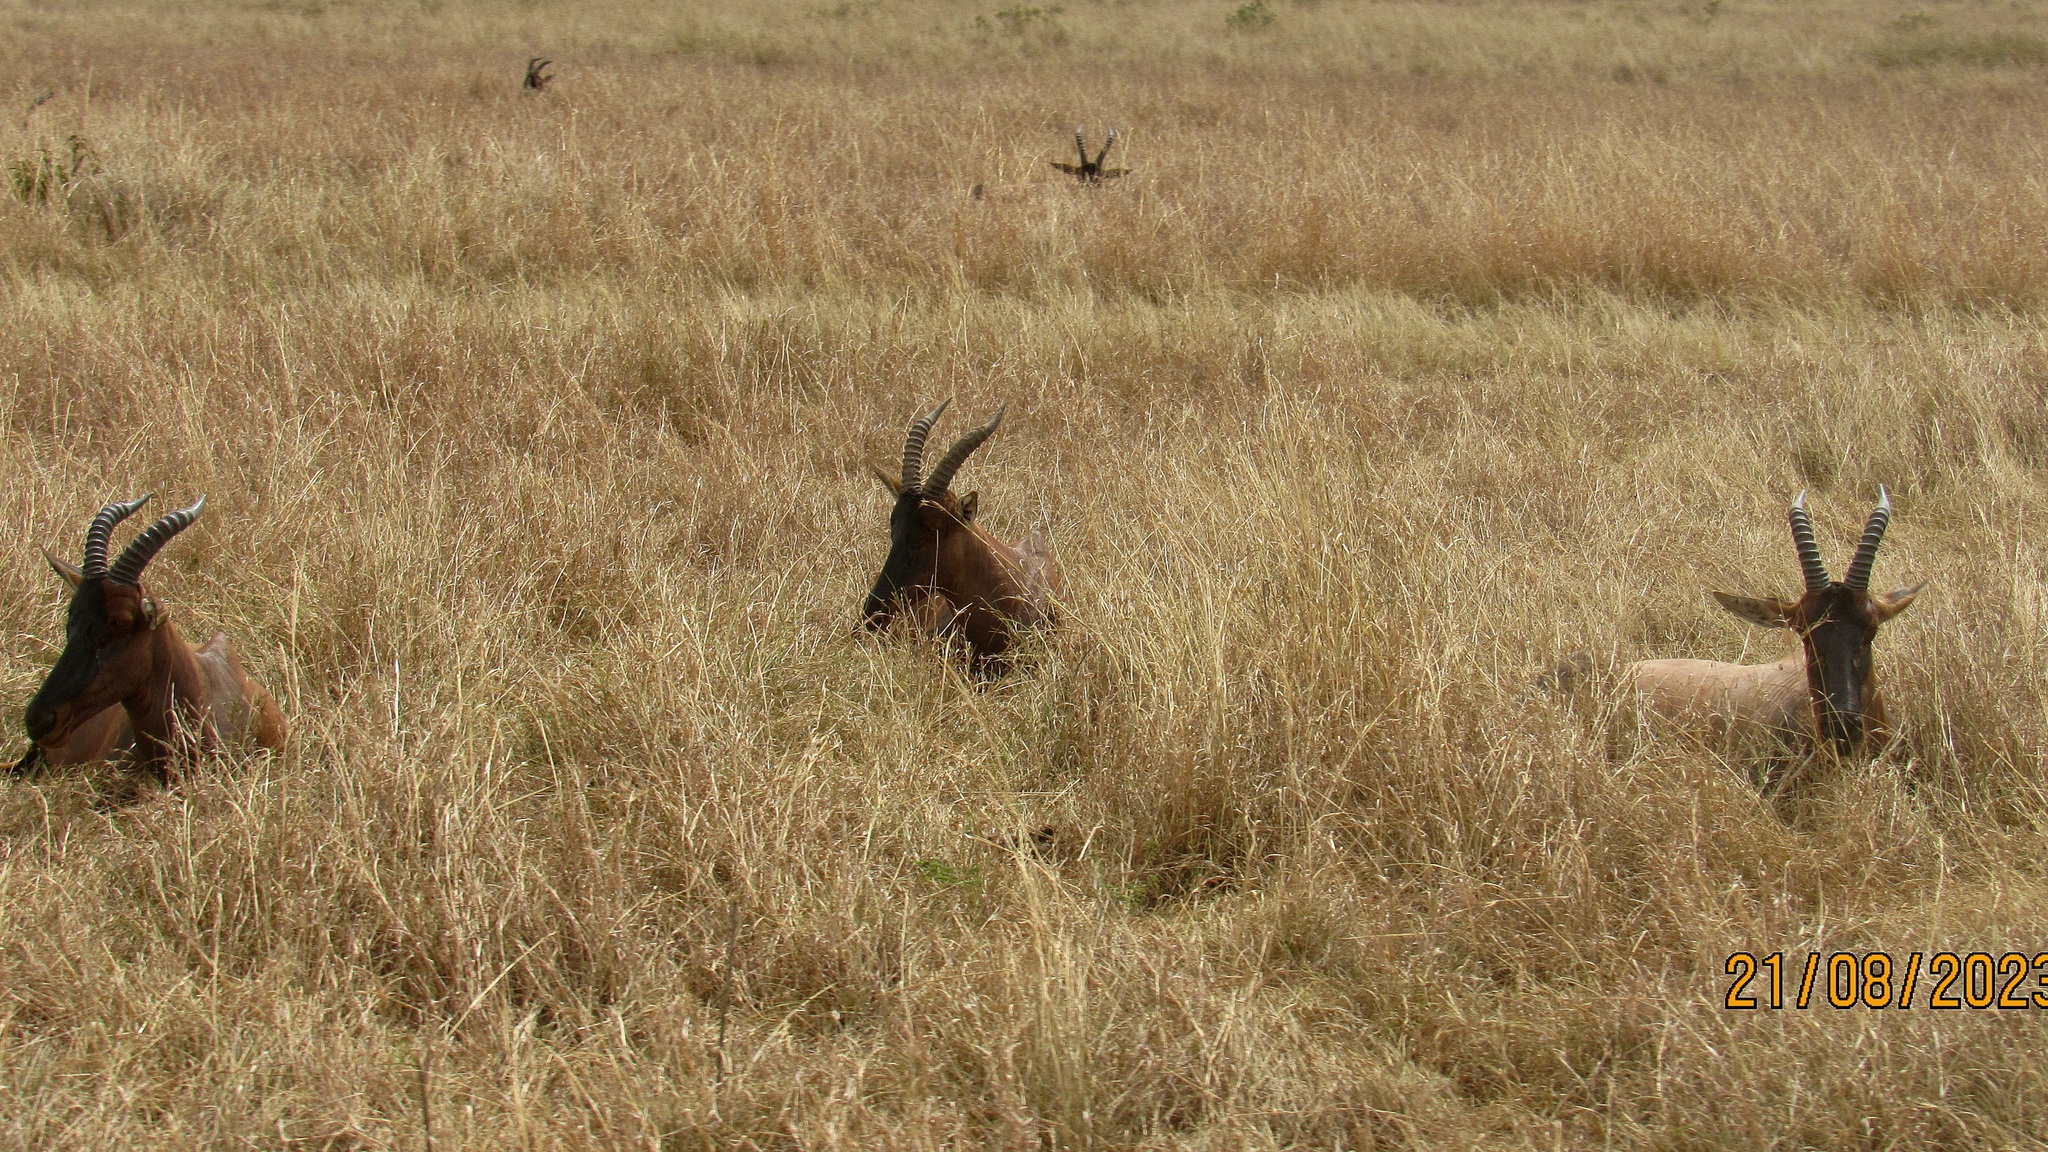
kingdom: Animalia
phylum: Chordata
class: Mammalia
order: Artiodactyla
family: Bovidae
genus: Damaliscus
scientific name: Damaliscus korrigum
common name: Topi
